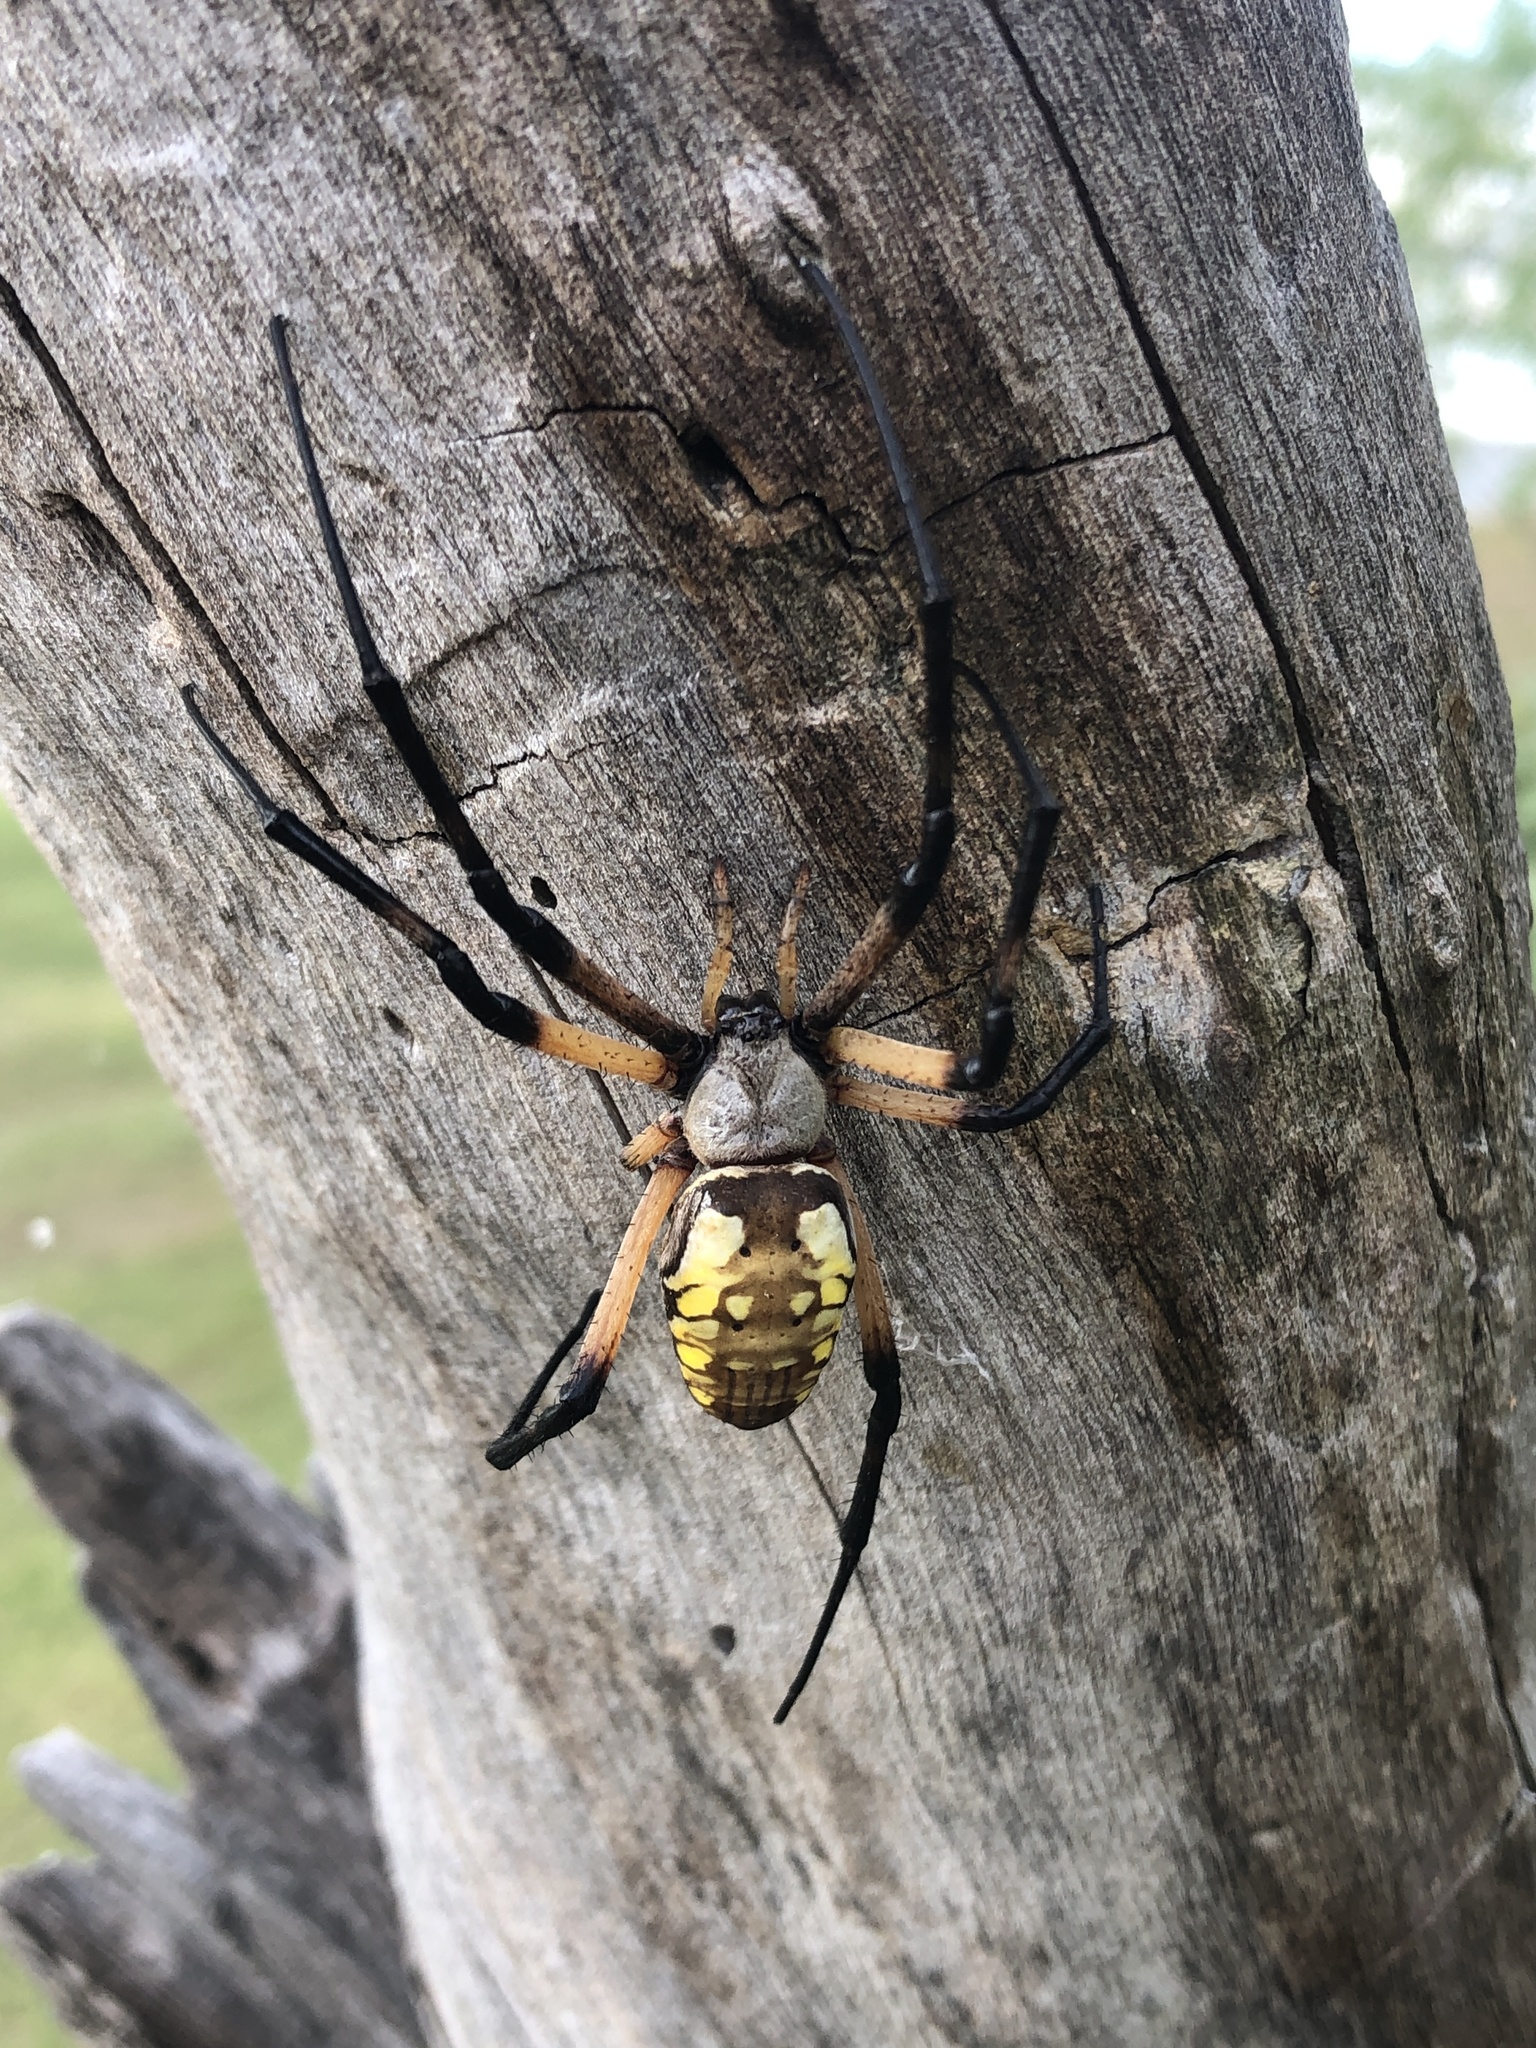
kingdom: Animalia
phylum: Arthropoda
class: Arachnida
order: Araneae
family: Araneidae
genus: Argiope
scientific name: Argiope aurantia
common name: Orb weavers
